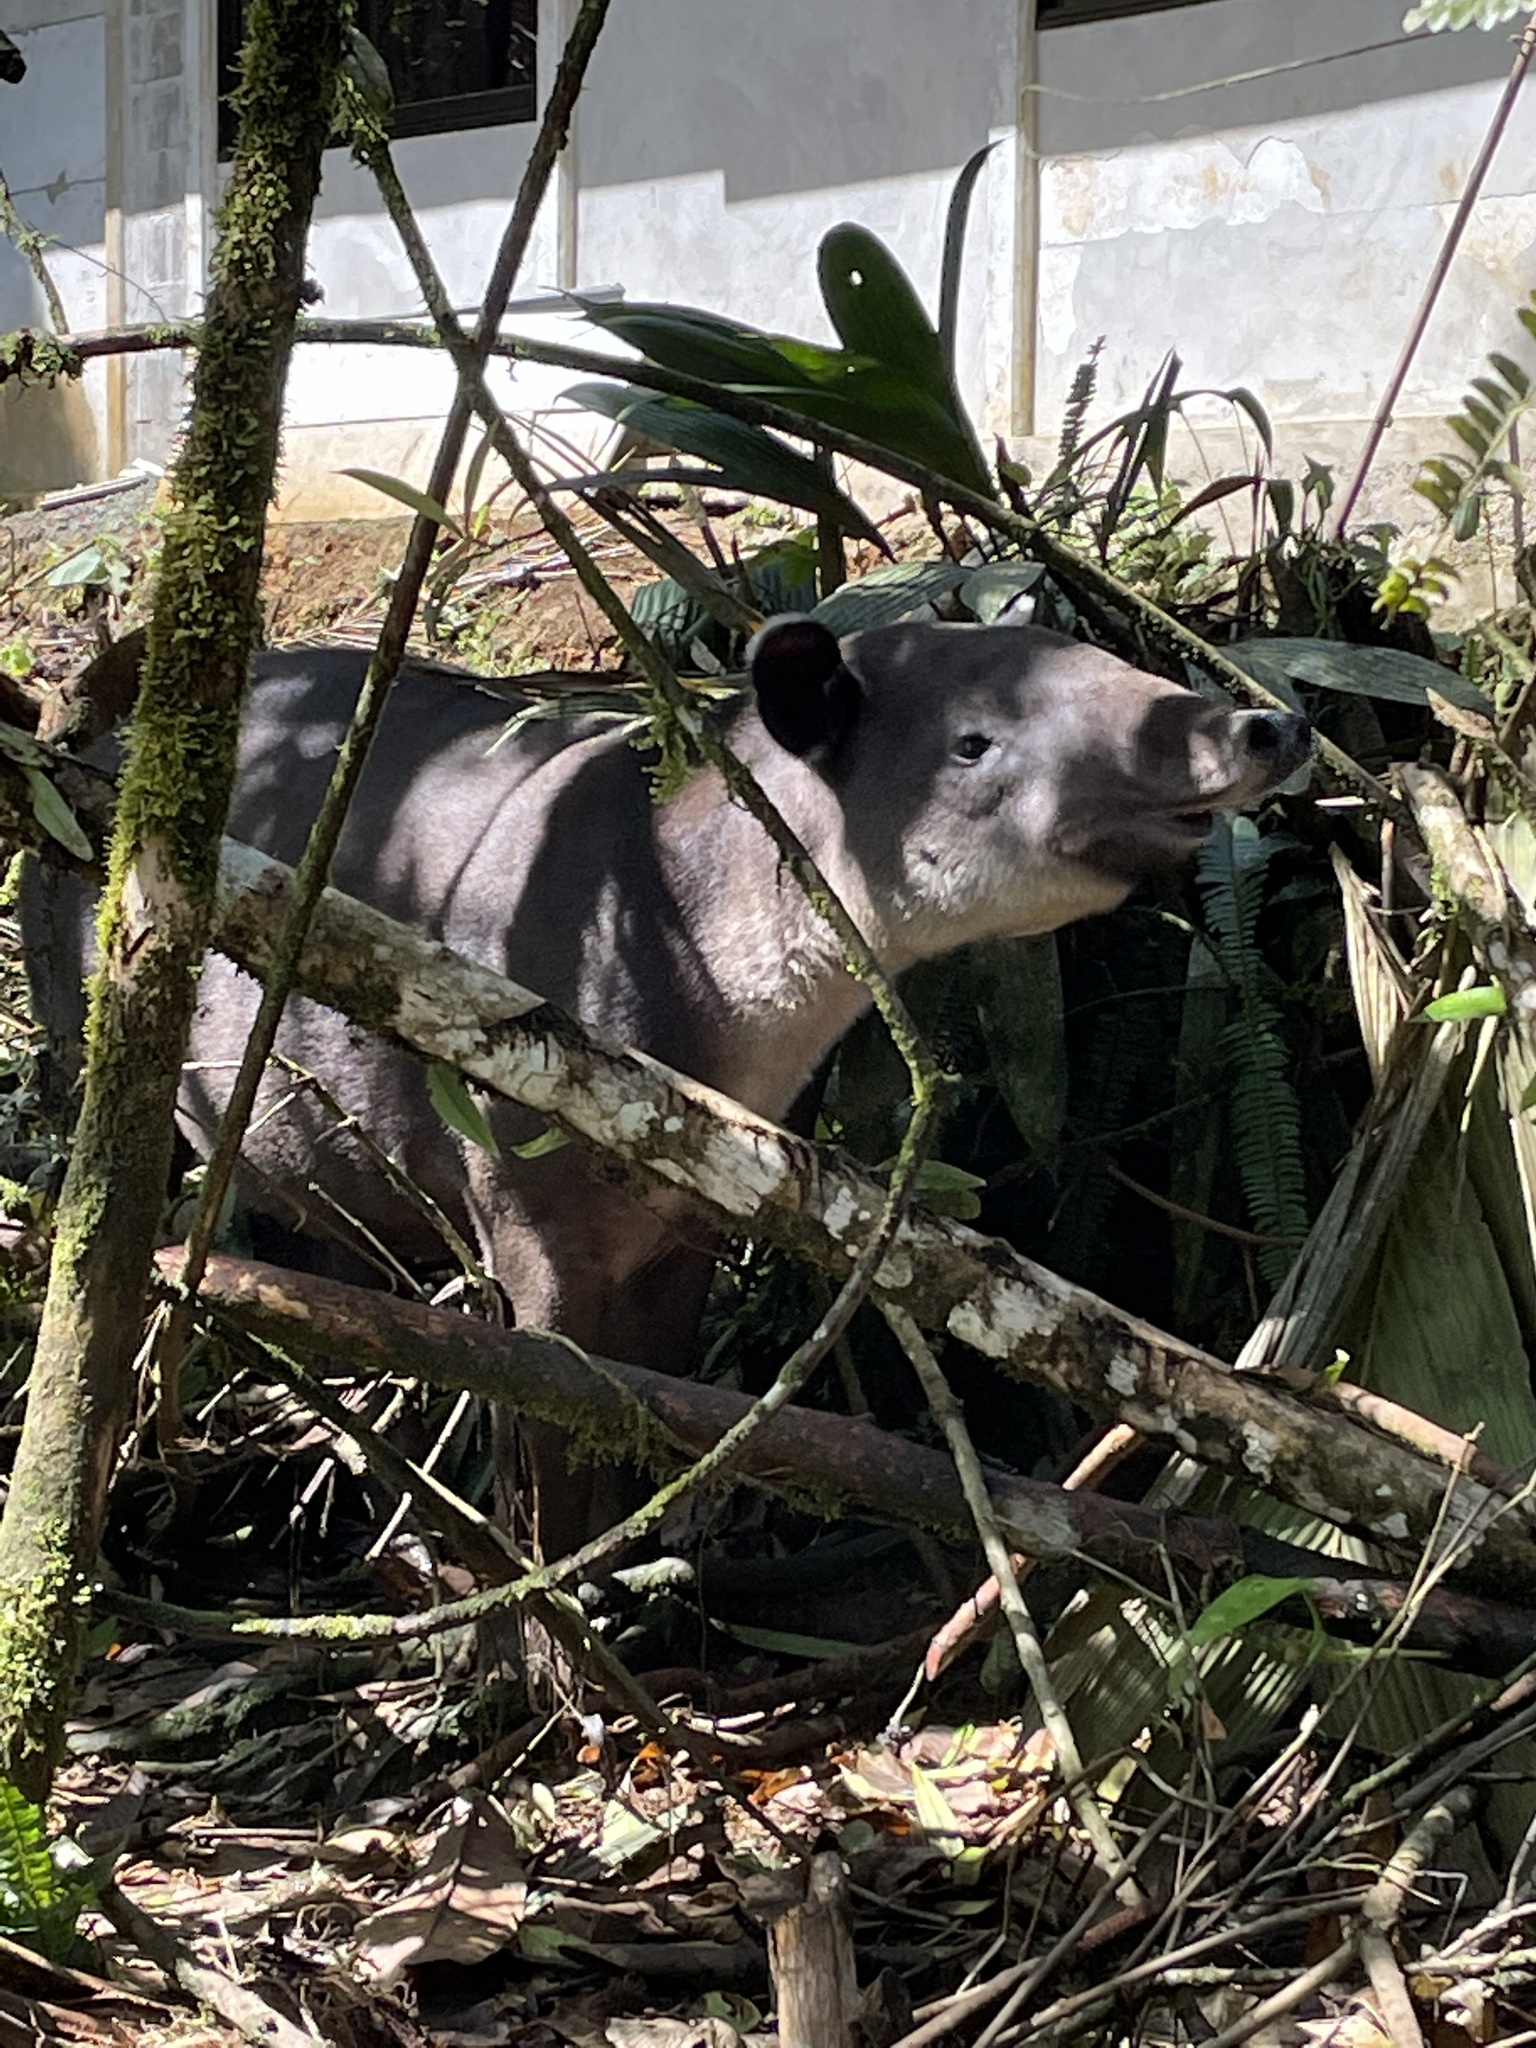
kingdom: Animalia
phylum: Chordata
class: Mammalia
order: Perissodactyla
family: Tapiridae
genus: Tapirella
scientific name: Tapirella bairdii
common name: Baird's tapir
